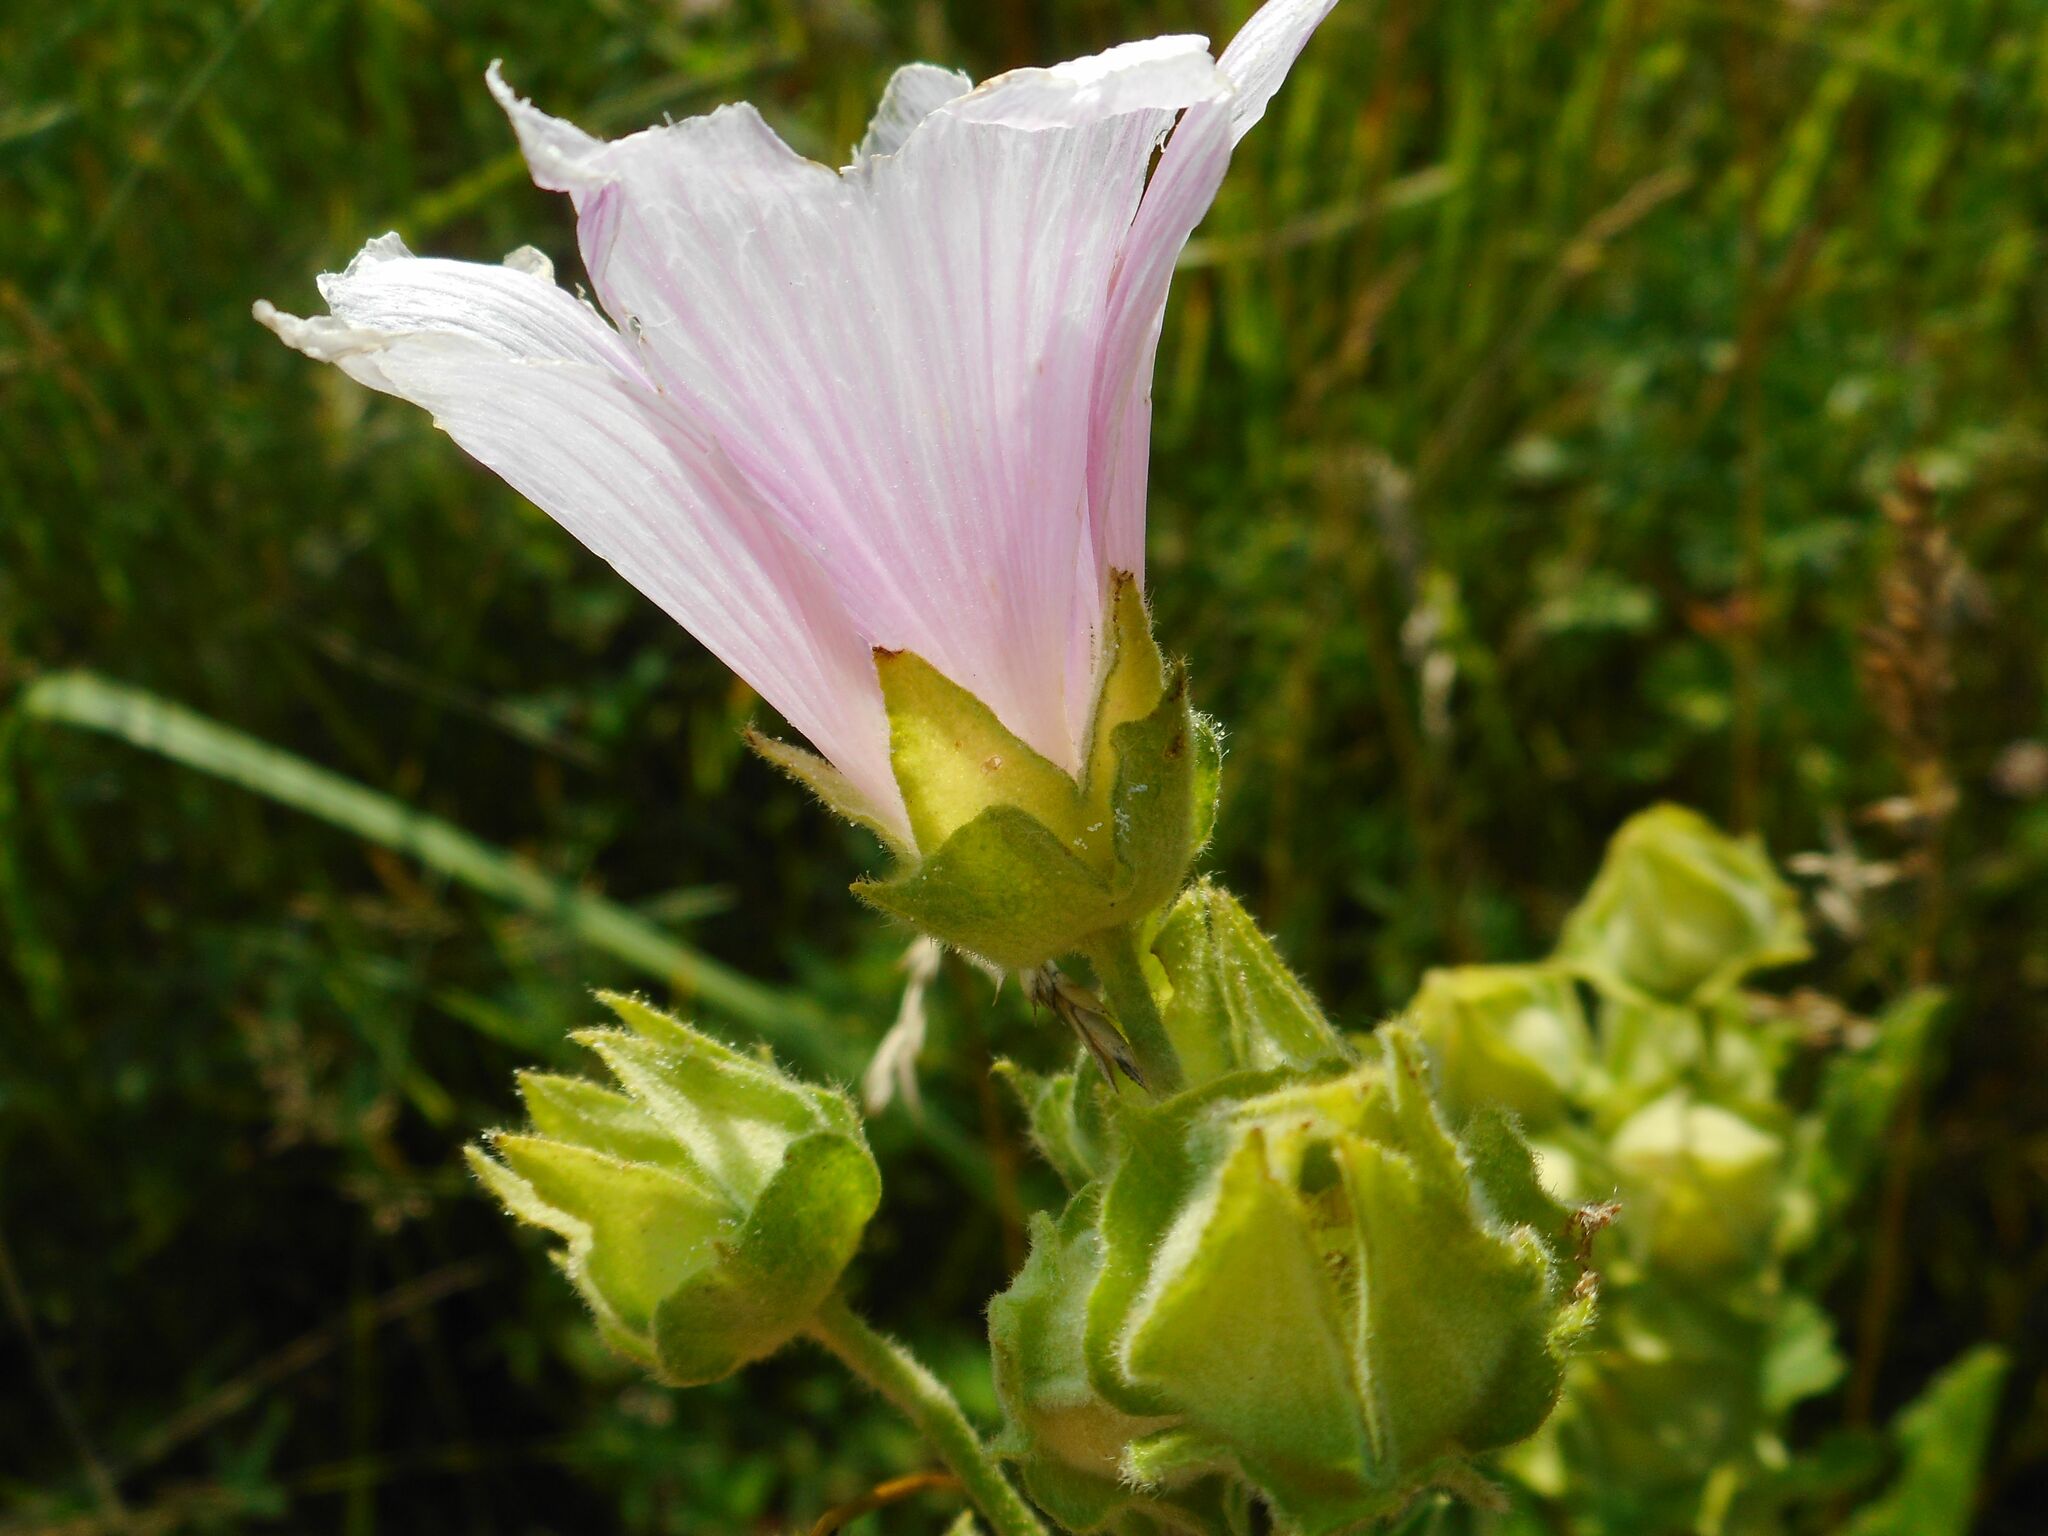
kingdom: Plantae
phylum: Tracheophyta
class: Magnoliopsida
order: Malvales
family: Malvaceae
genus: Malva
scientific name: Malva thuringiaca
